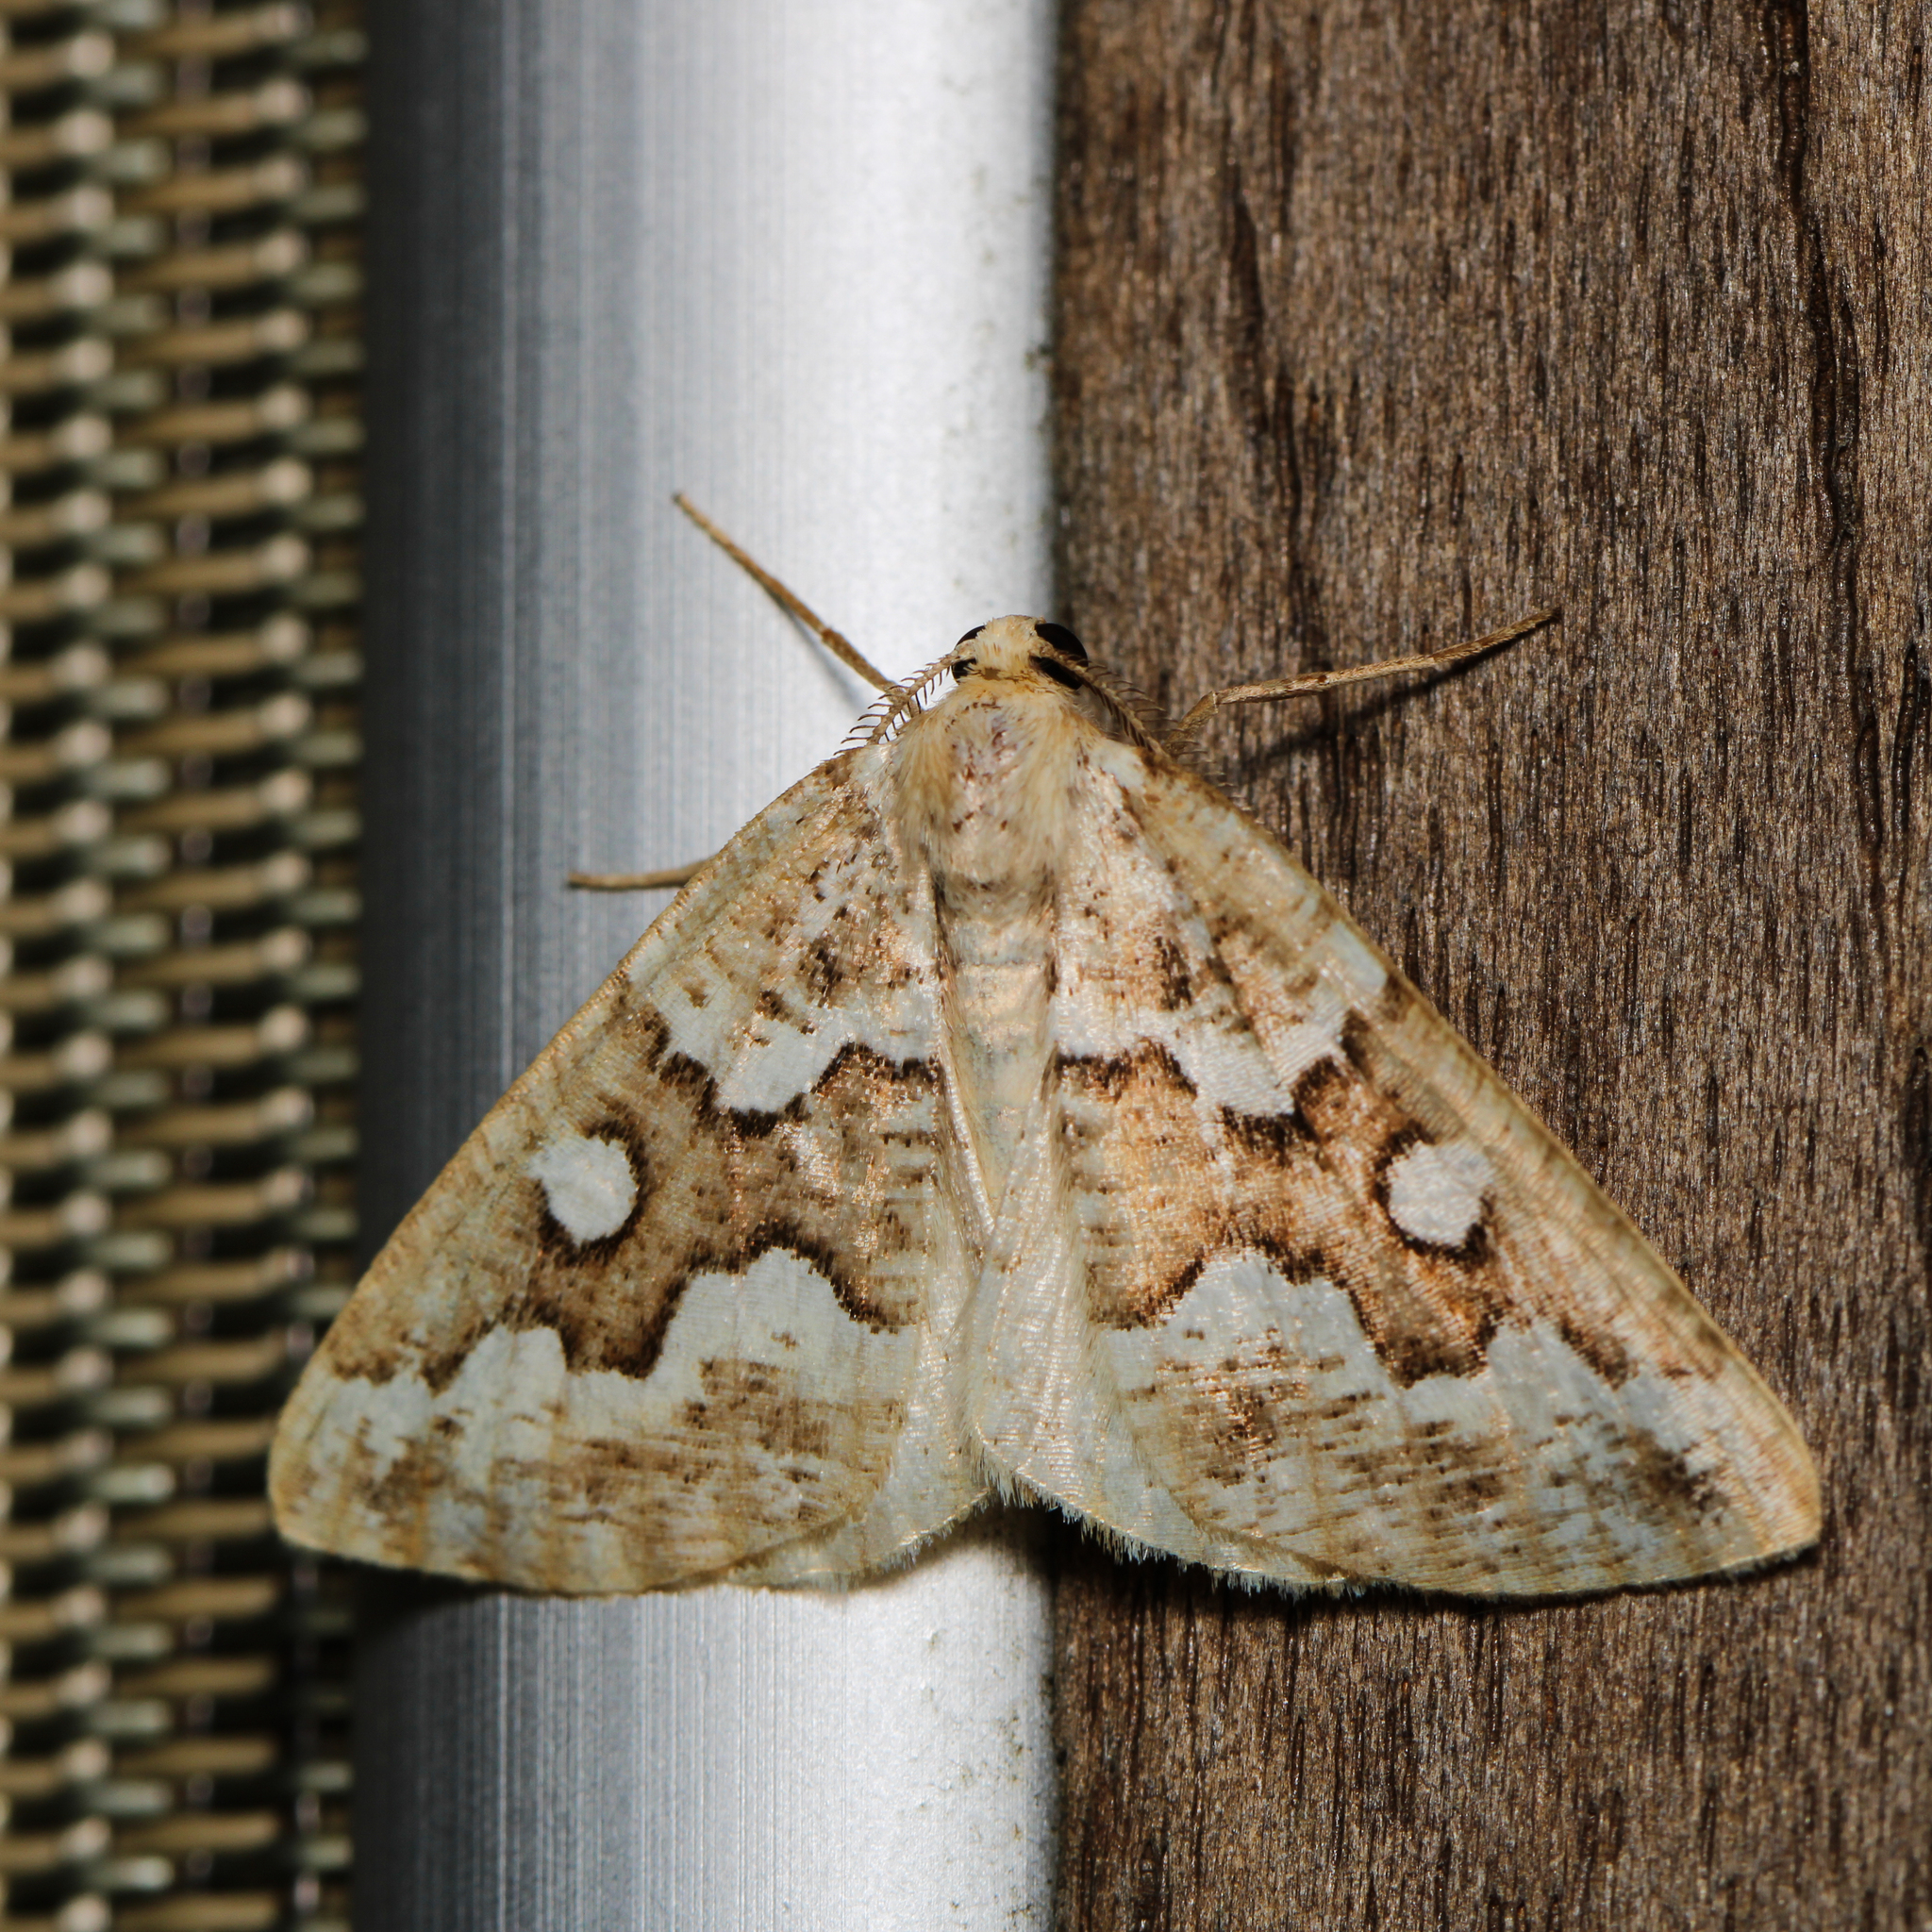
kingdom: Animalia
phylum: Arthropoda
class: Insecta
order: Lepidoptera
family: Geometridae
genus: Caripeta
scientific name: Caripeta divisata
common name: Gray spruce looper
